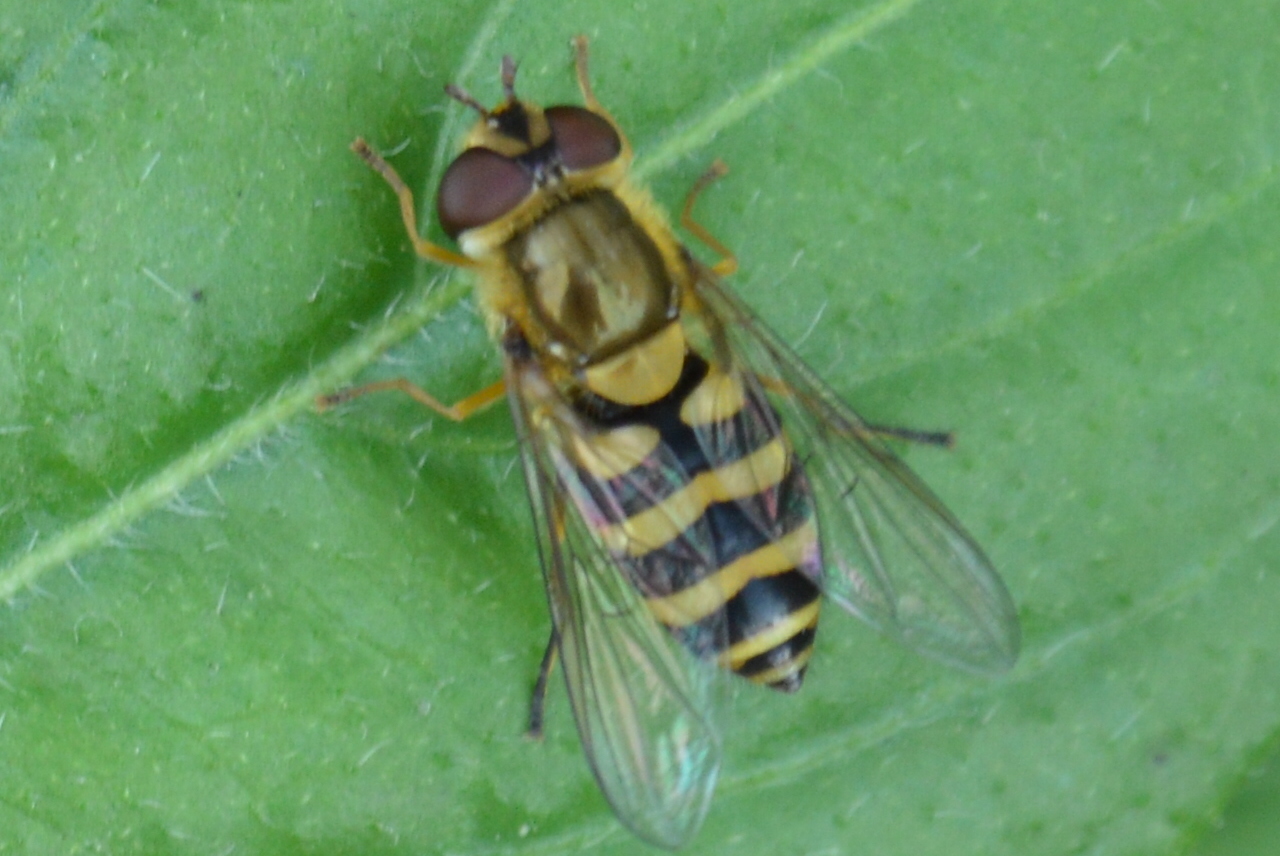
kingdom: Animalia
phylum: Arthropoda
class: Insecta
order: Diptera
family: Syrphidae
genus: Syrphus
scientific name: Syrphus
